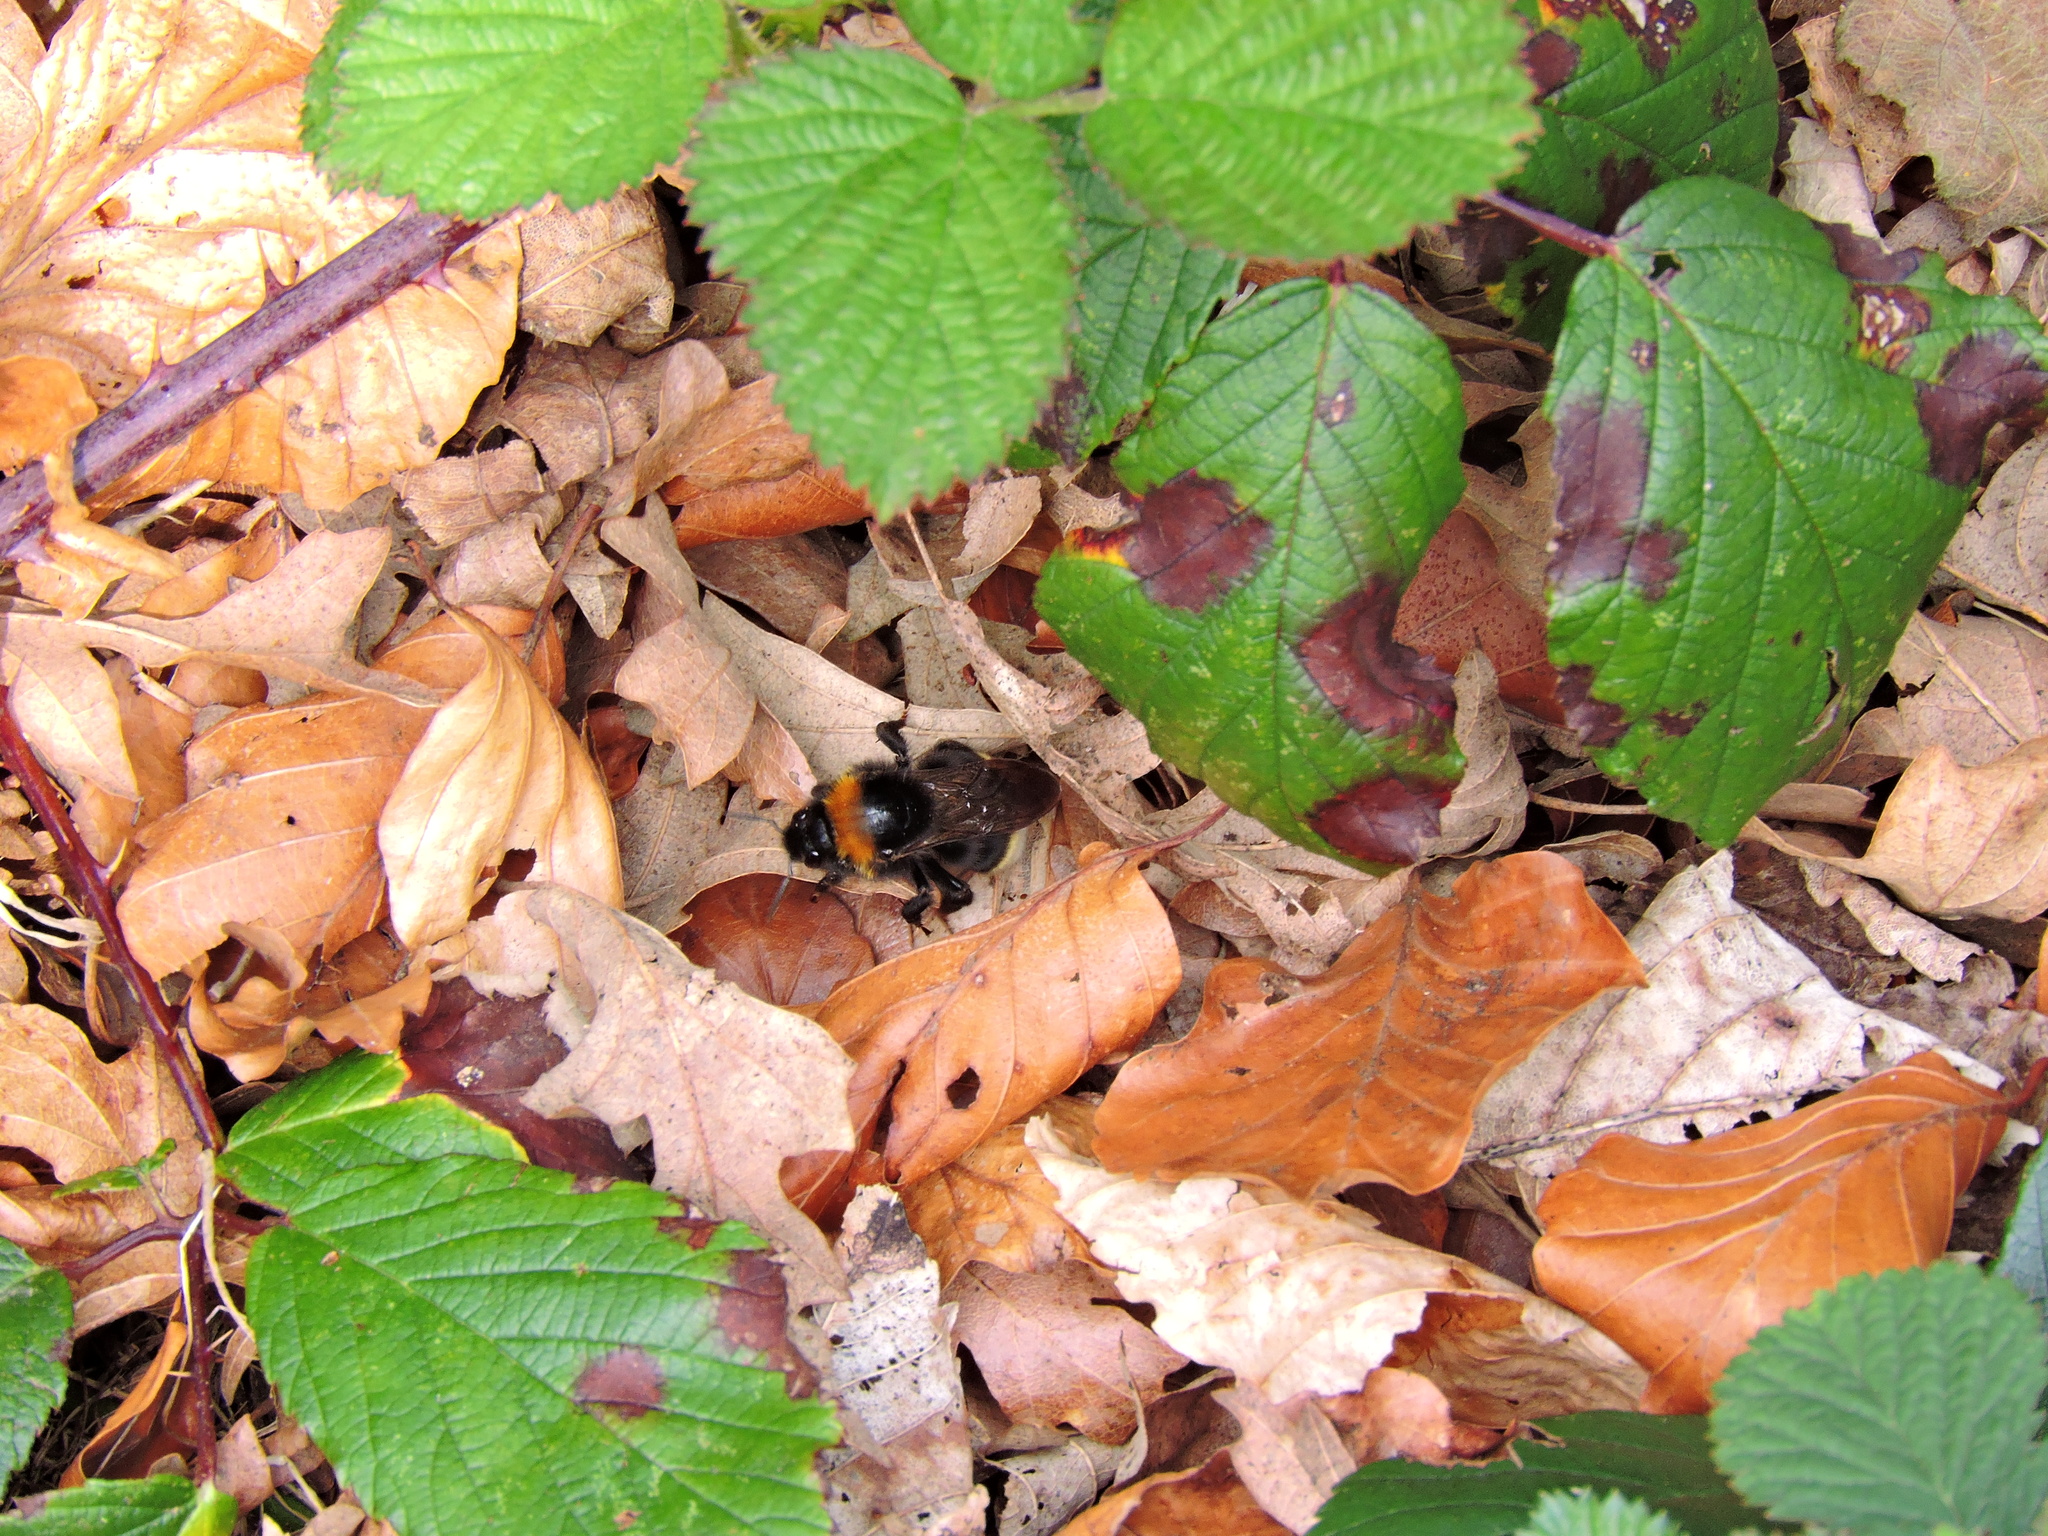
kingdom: Animalia
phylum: Arthropoda
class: Insecta
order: Hymenoptera
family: Apidae
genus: Bombus
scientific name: Bombus vestalis
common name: Vestal cuckoo bee
